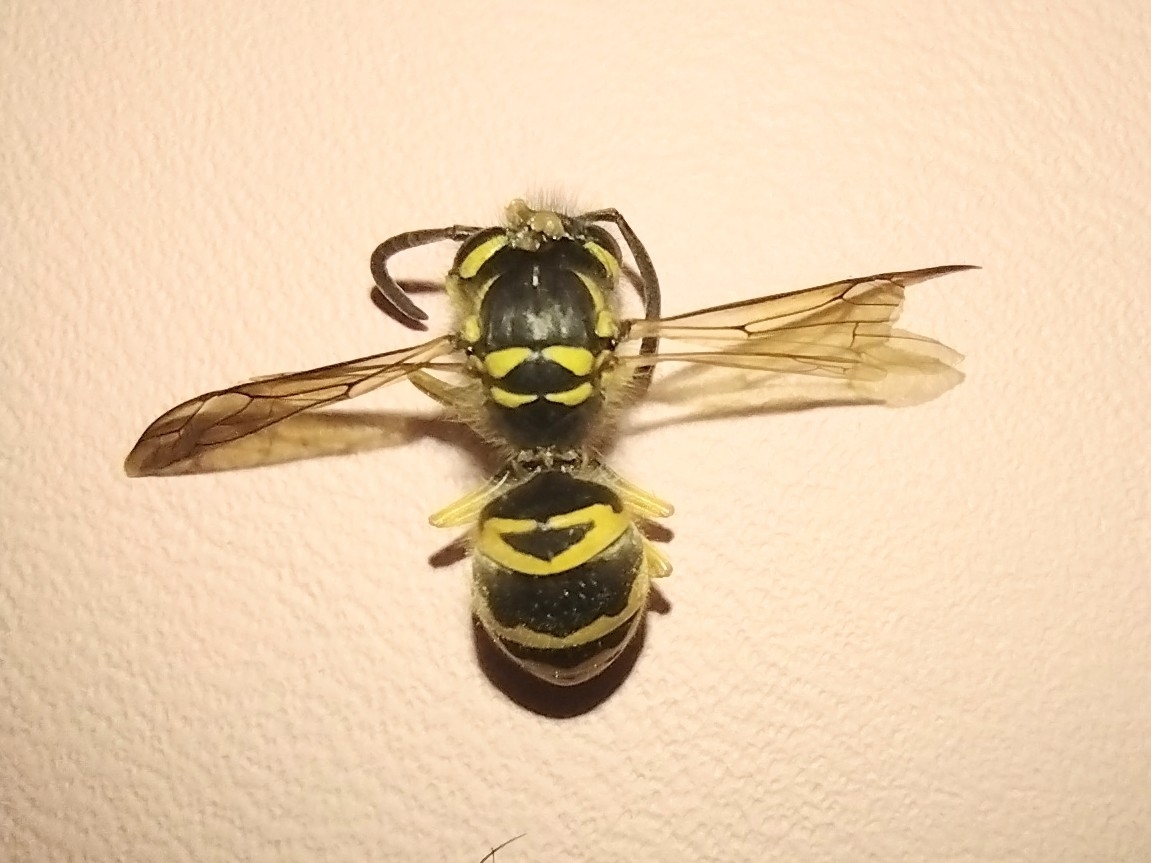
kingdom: Animalia
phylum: Arthropoda
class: Insecta
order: Hymenoptera
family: Vespidae
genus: Vespula
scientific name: Vespula maculifrons
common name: Eastern yellowjacket
